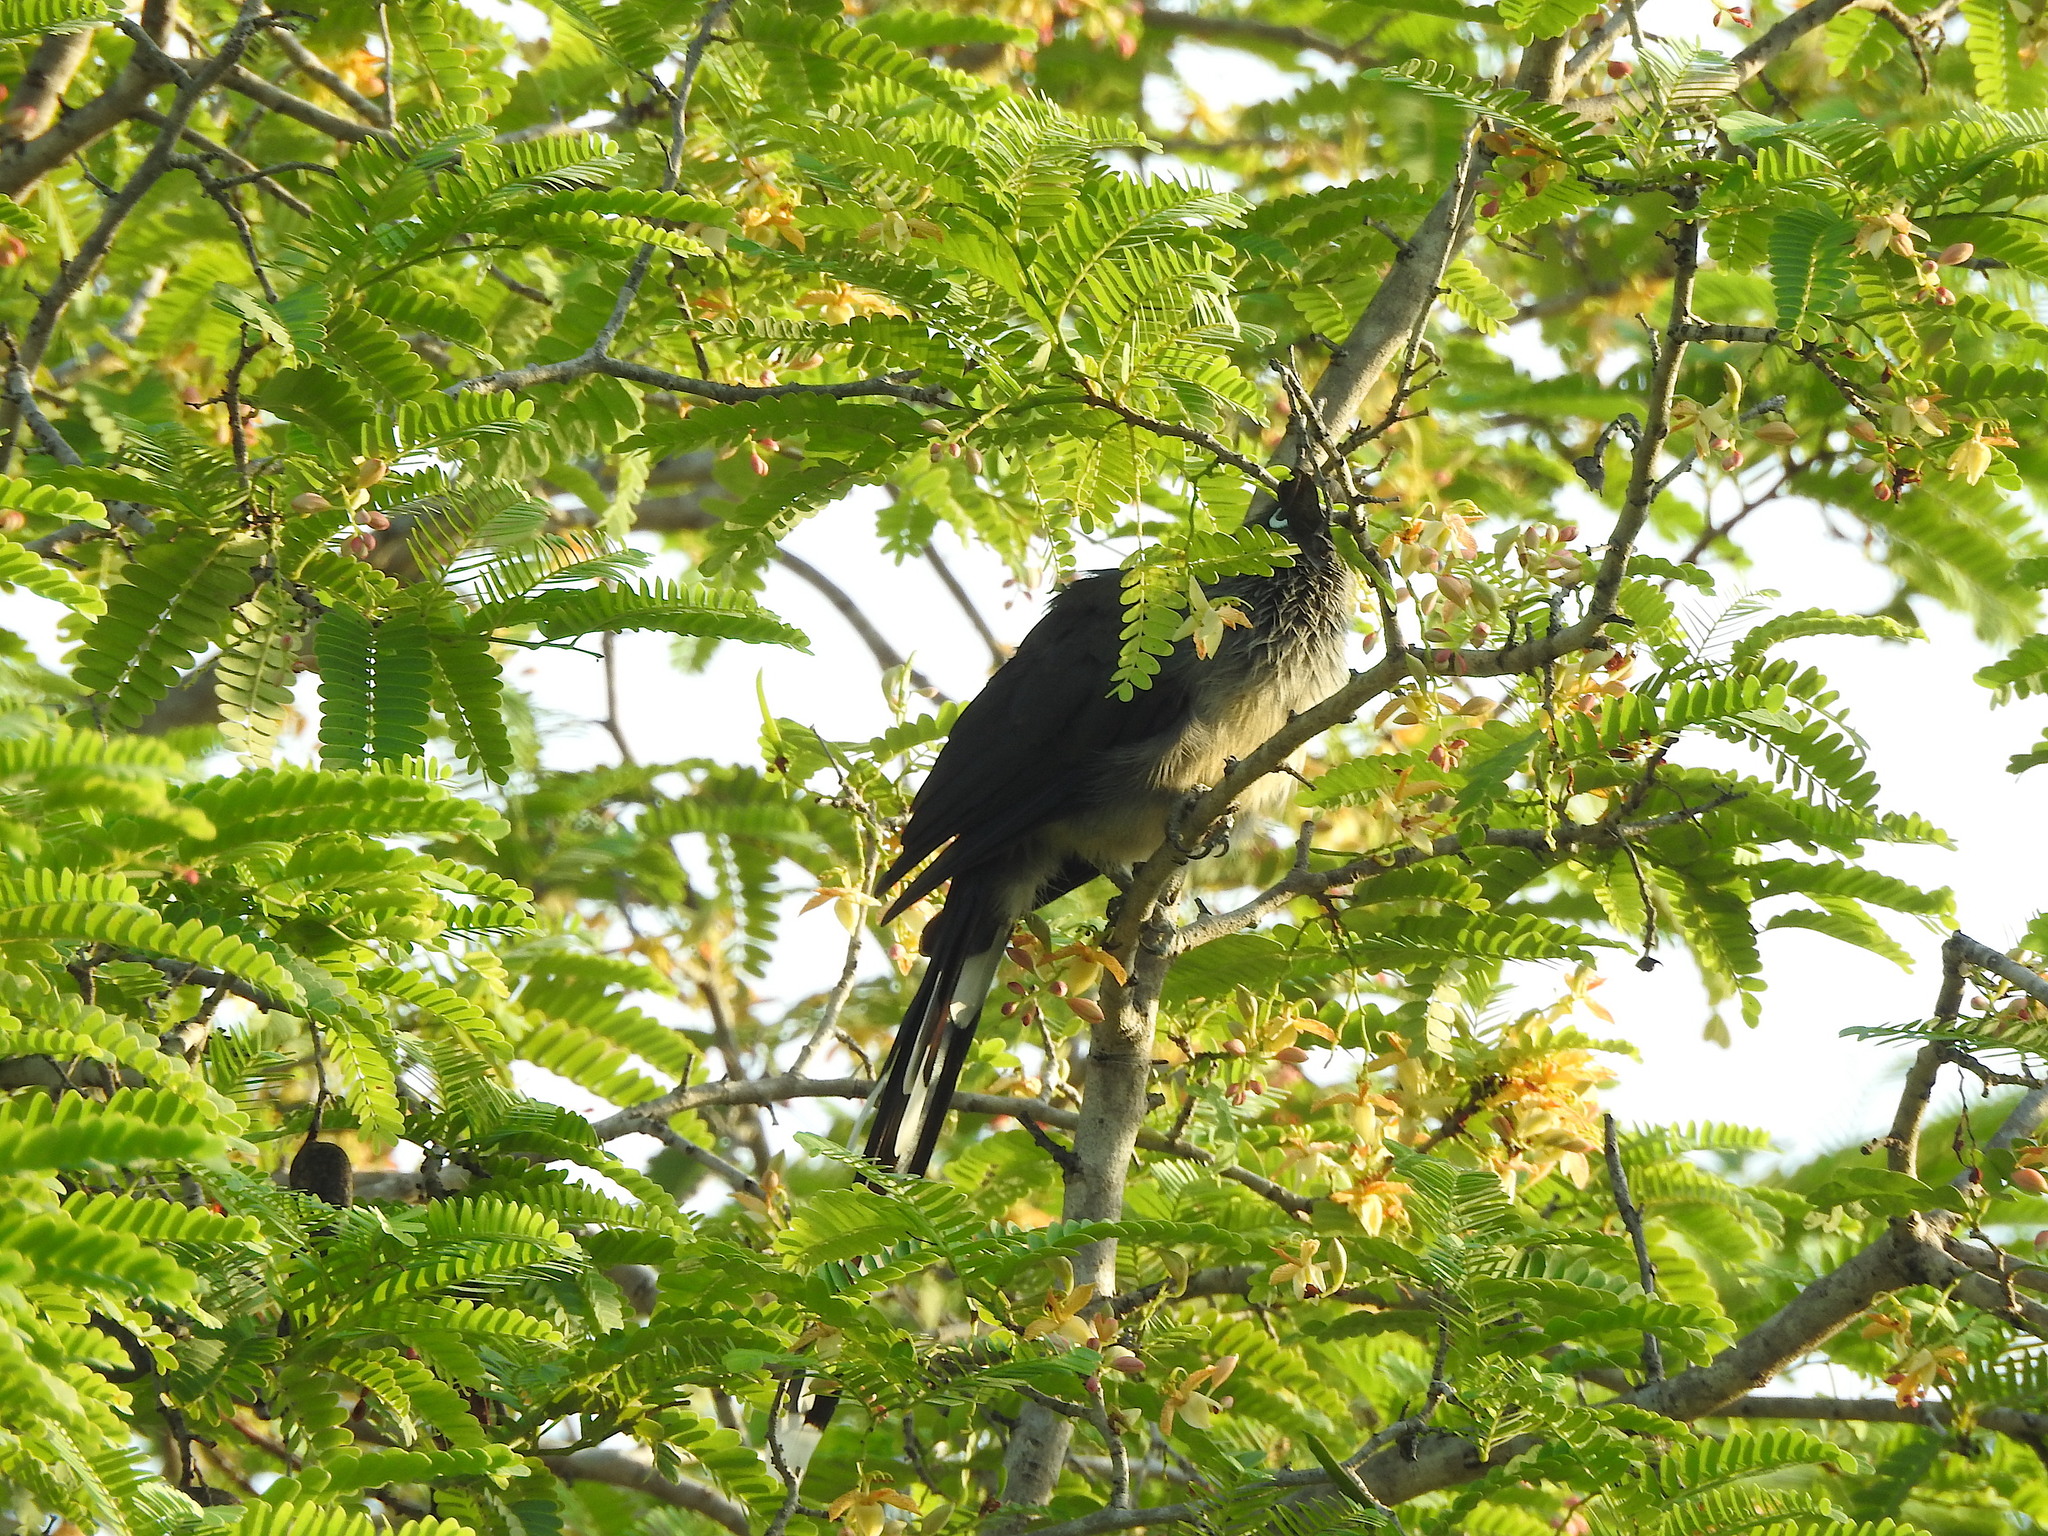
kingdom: Animalia
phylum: Chordata
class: Aves
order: Cuculiformes
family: Cuculidae
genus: Rhopodytes
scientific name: Rhopodytes viridirostris
